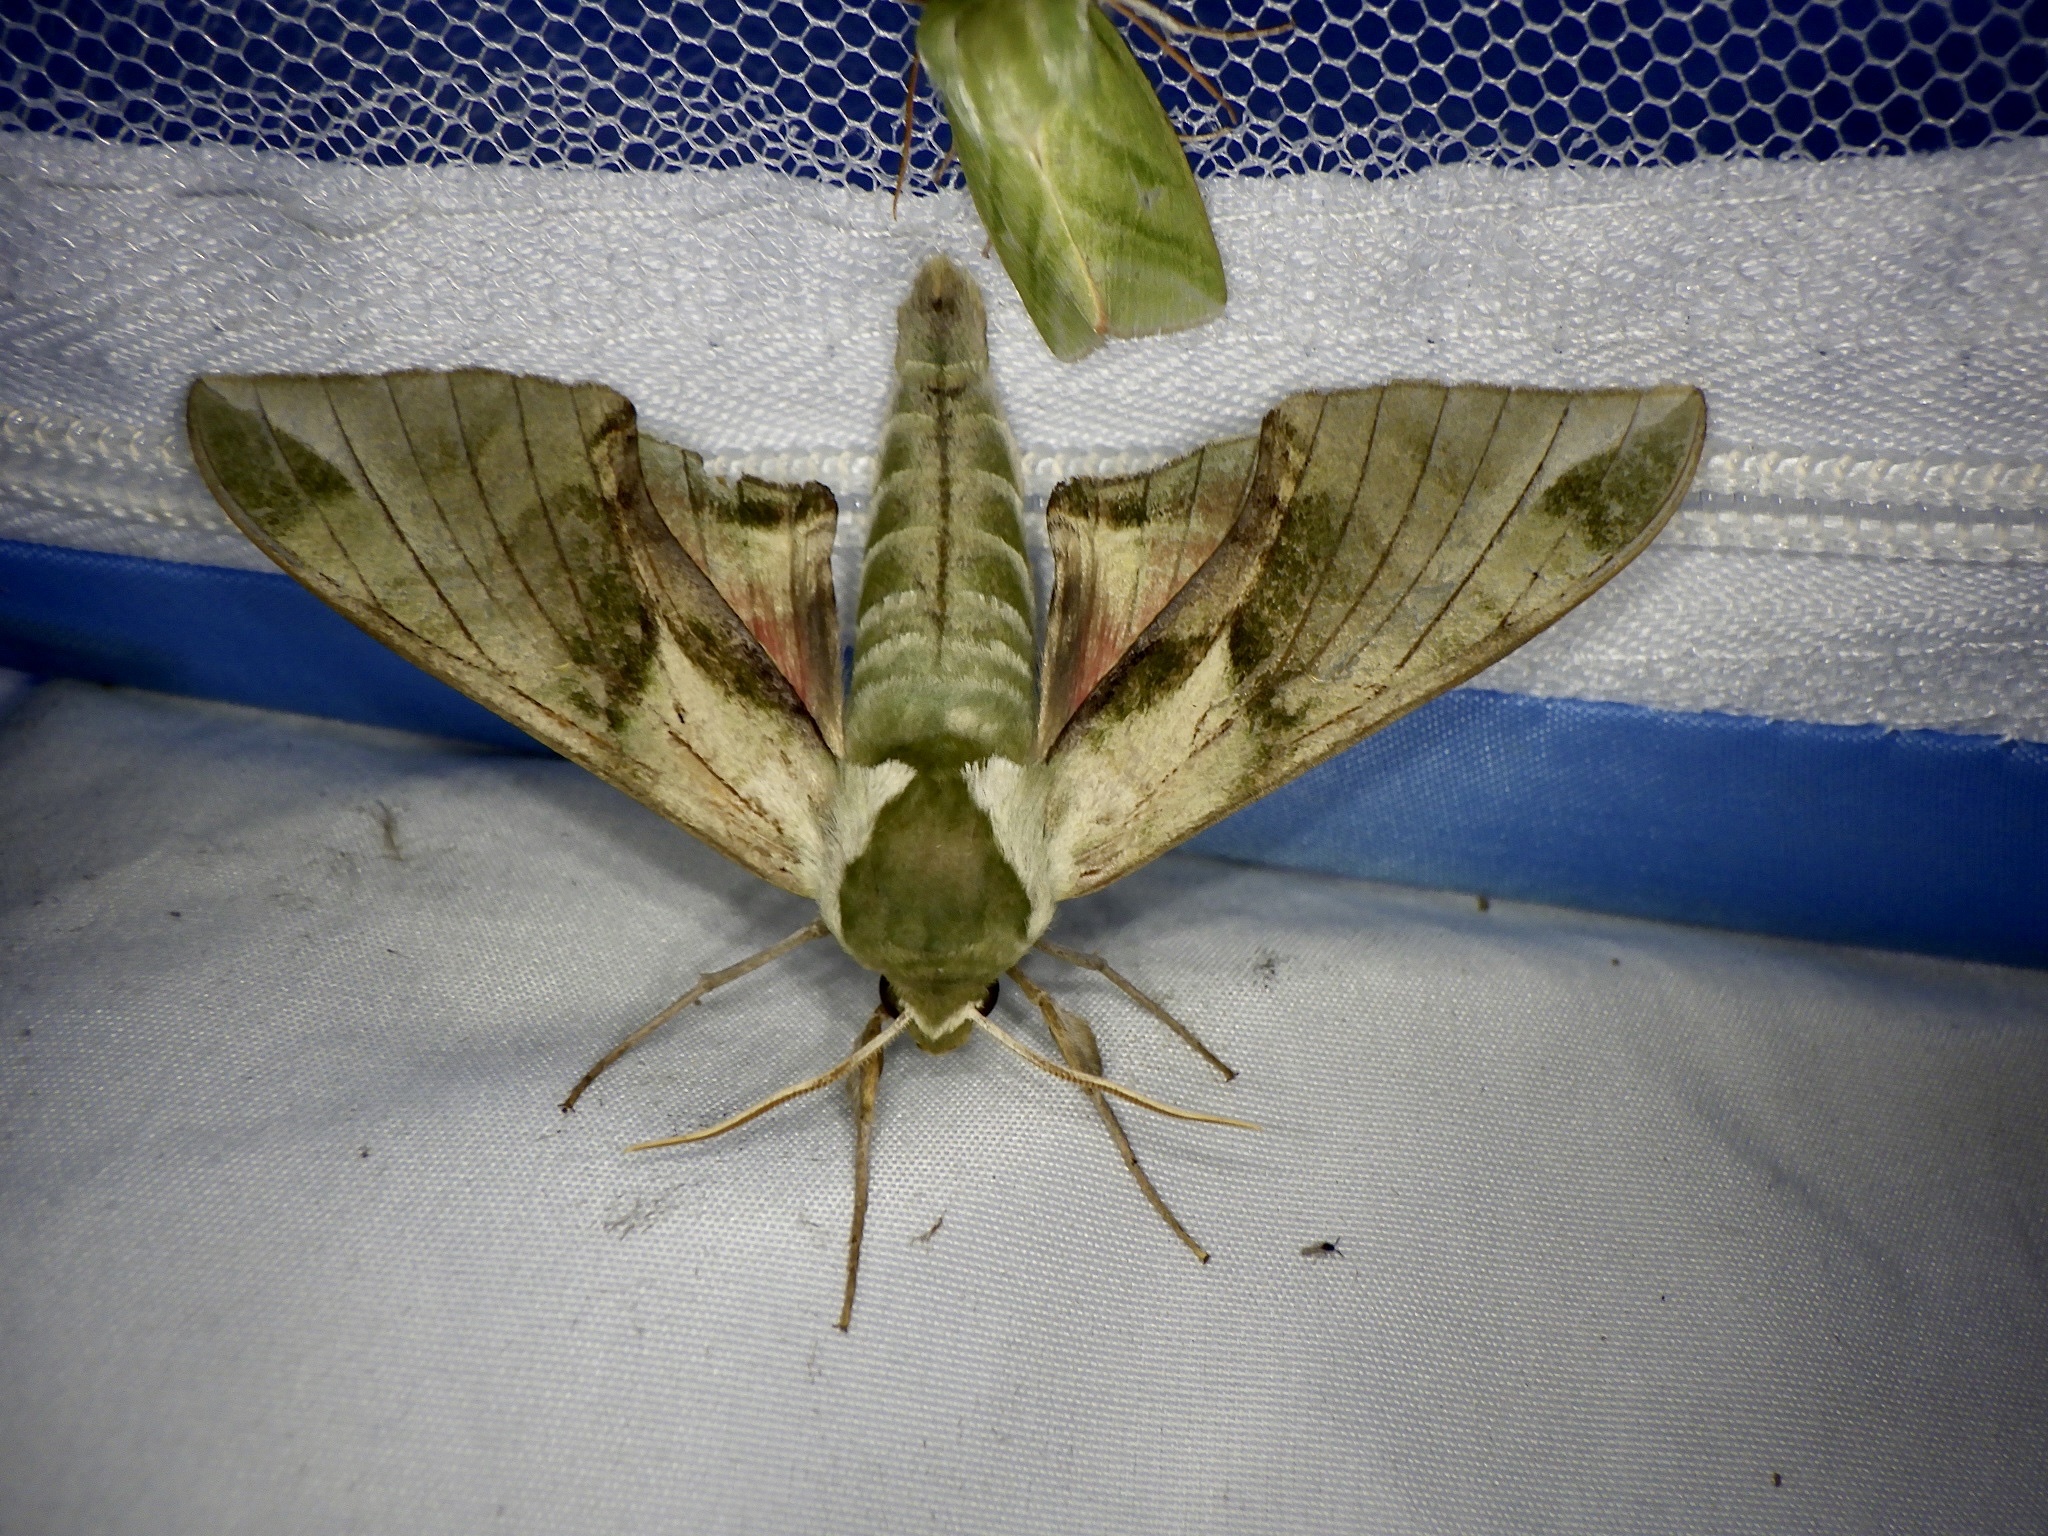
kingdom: Animalia
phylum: Arthropoda
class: Insecta
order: Lepidoptera
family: Sphingidae
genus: Callambulyx
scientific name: Callambulyx tatarinovii
